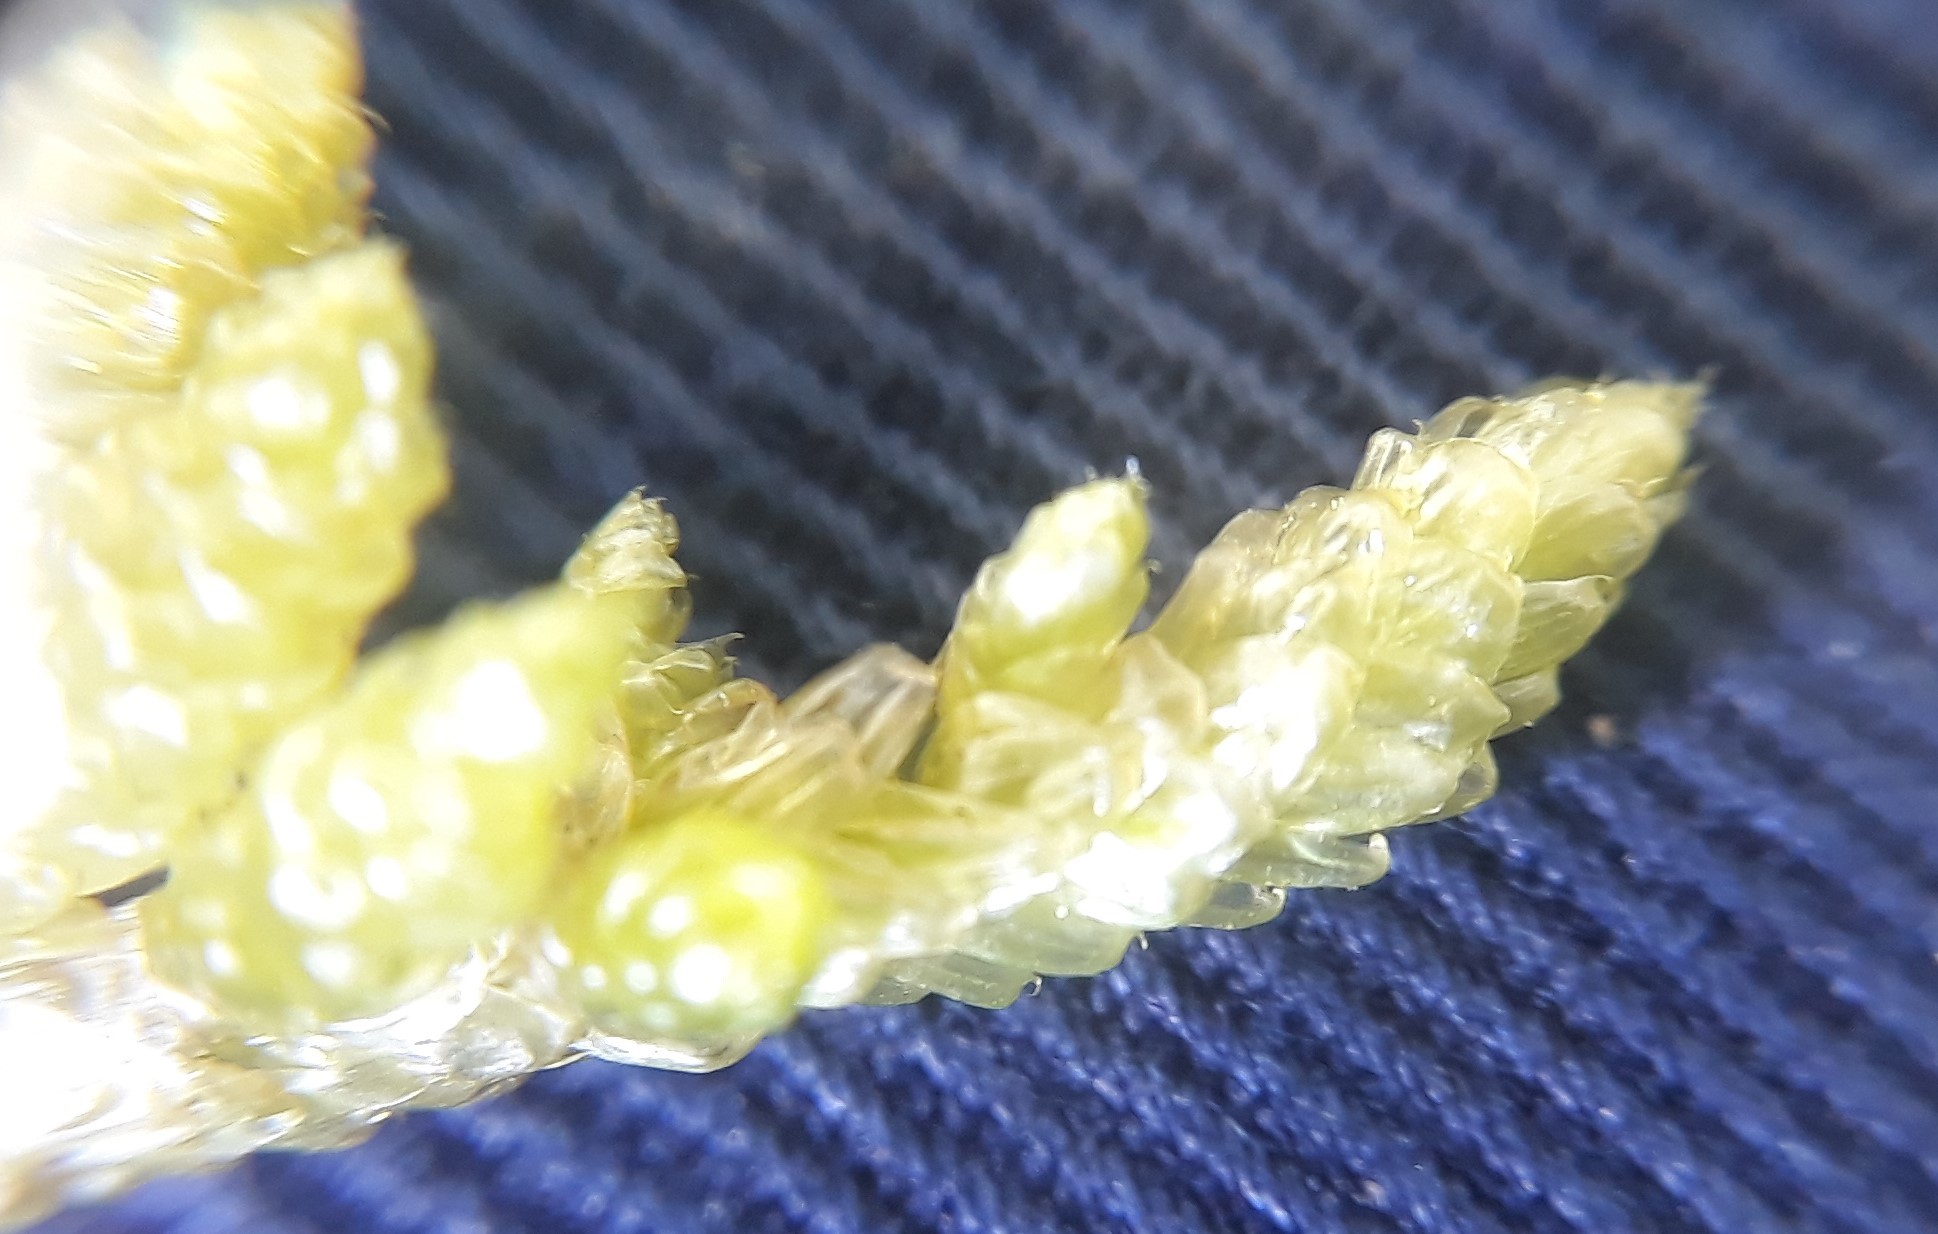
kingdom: Plantae
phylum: Bryophyta
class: Bryopsida
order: Hypnales
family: Brachytheciaceae
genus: Pseudoscleropodium
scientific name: Pseudoscleropodium purum
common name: Neat feather-moss
